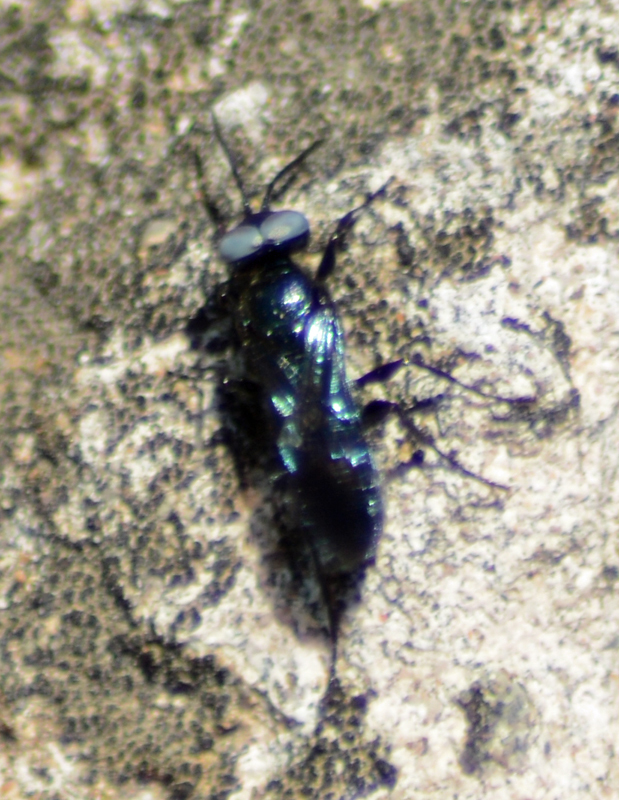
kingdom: Animalia
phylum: Arthropoda
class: Insecta
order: Hymenoptera
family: Crabronidae
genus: Dryudella
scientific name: Dryudella caerulea
